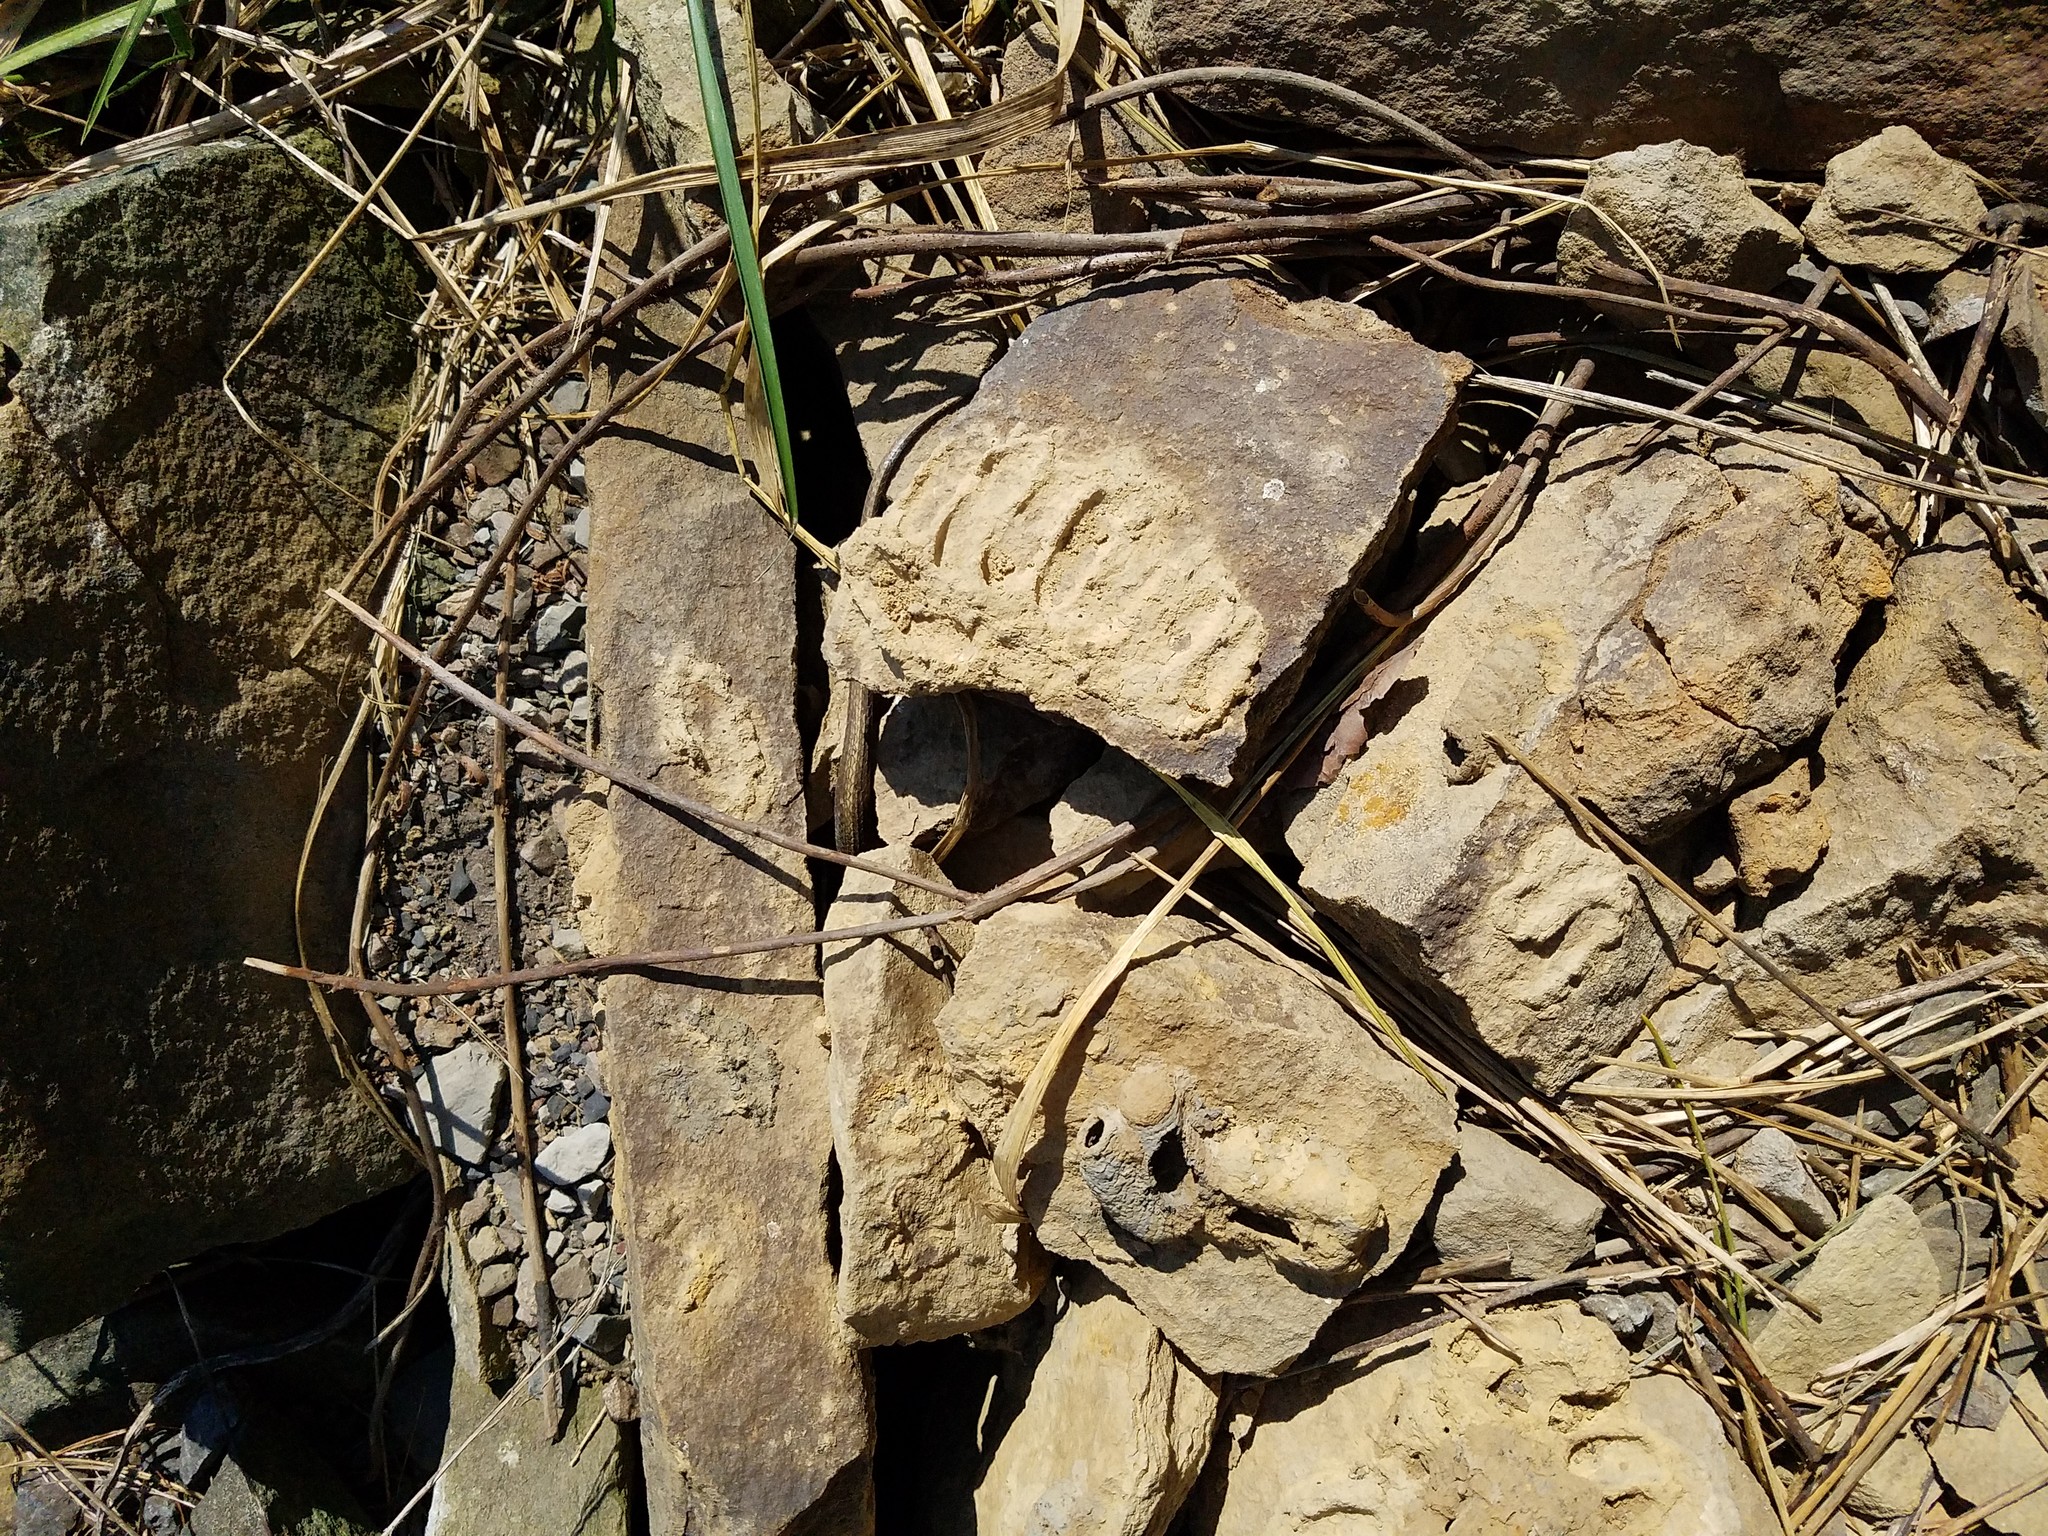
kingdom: Animalia
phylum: Chordata
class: Squamata
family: Colubridae
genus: Thamnophis
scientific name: Thamnophis sirtalis
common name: Common garter snake
